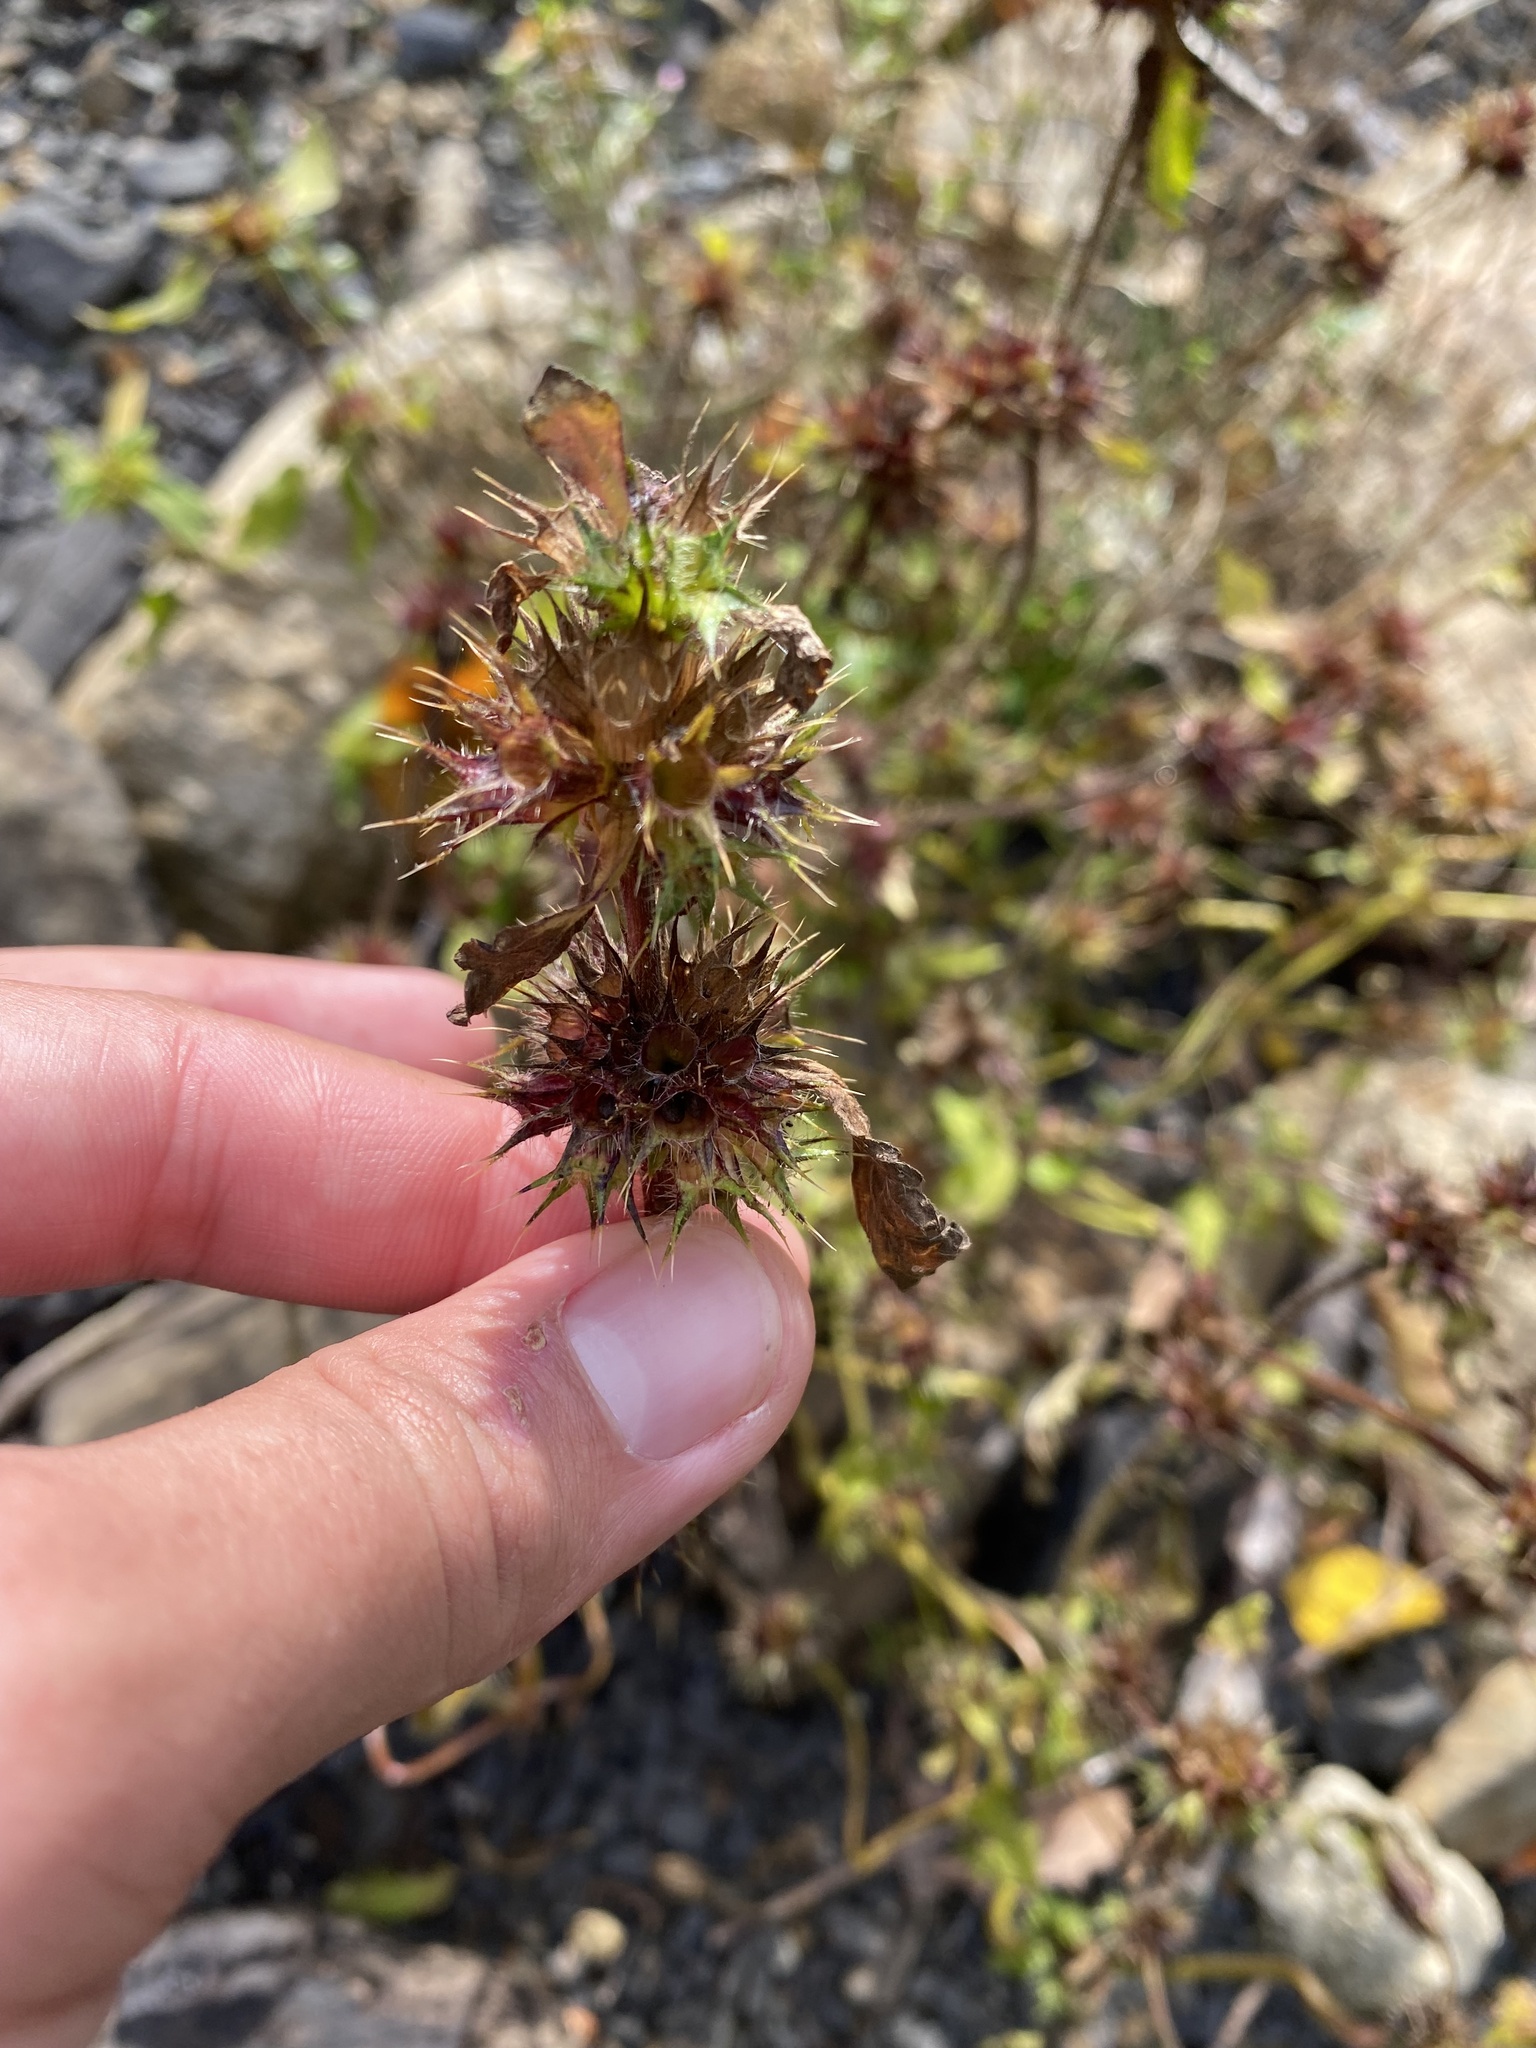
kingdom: Plantae
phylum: Tracheophyta
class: Magnoliopsida
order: Lamiales
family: Lamiaceae
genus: Galeopsis
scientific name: Galeopsis bifida
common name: Bifid hemp-nettle
